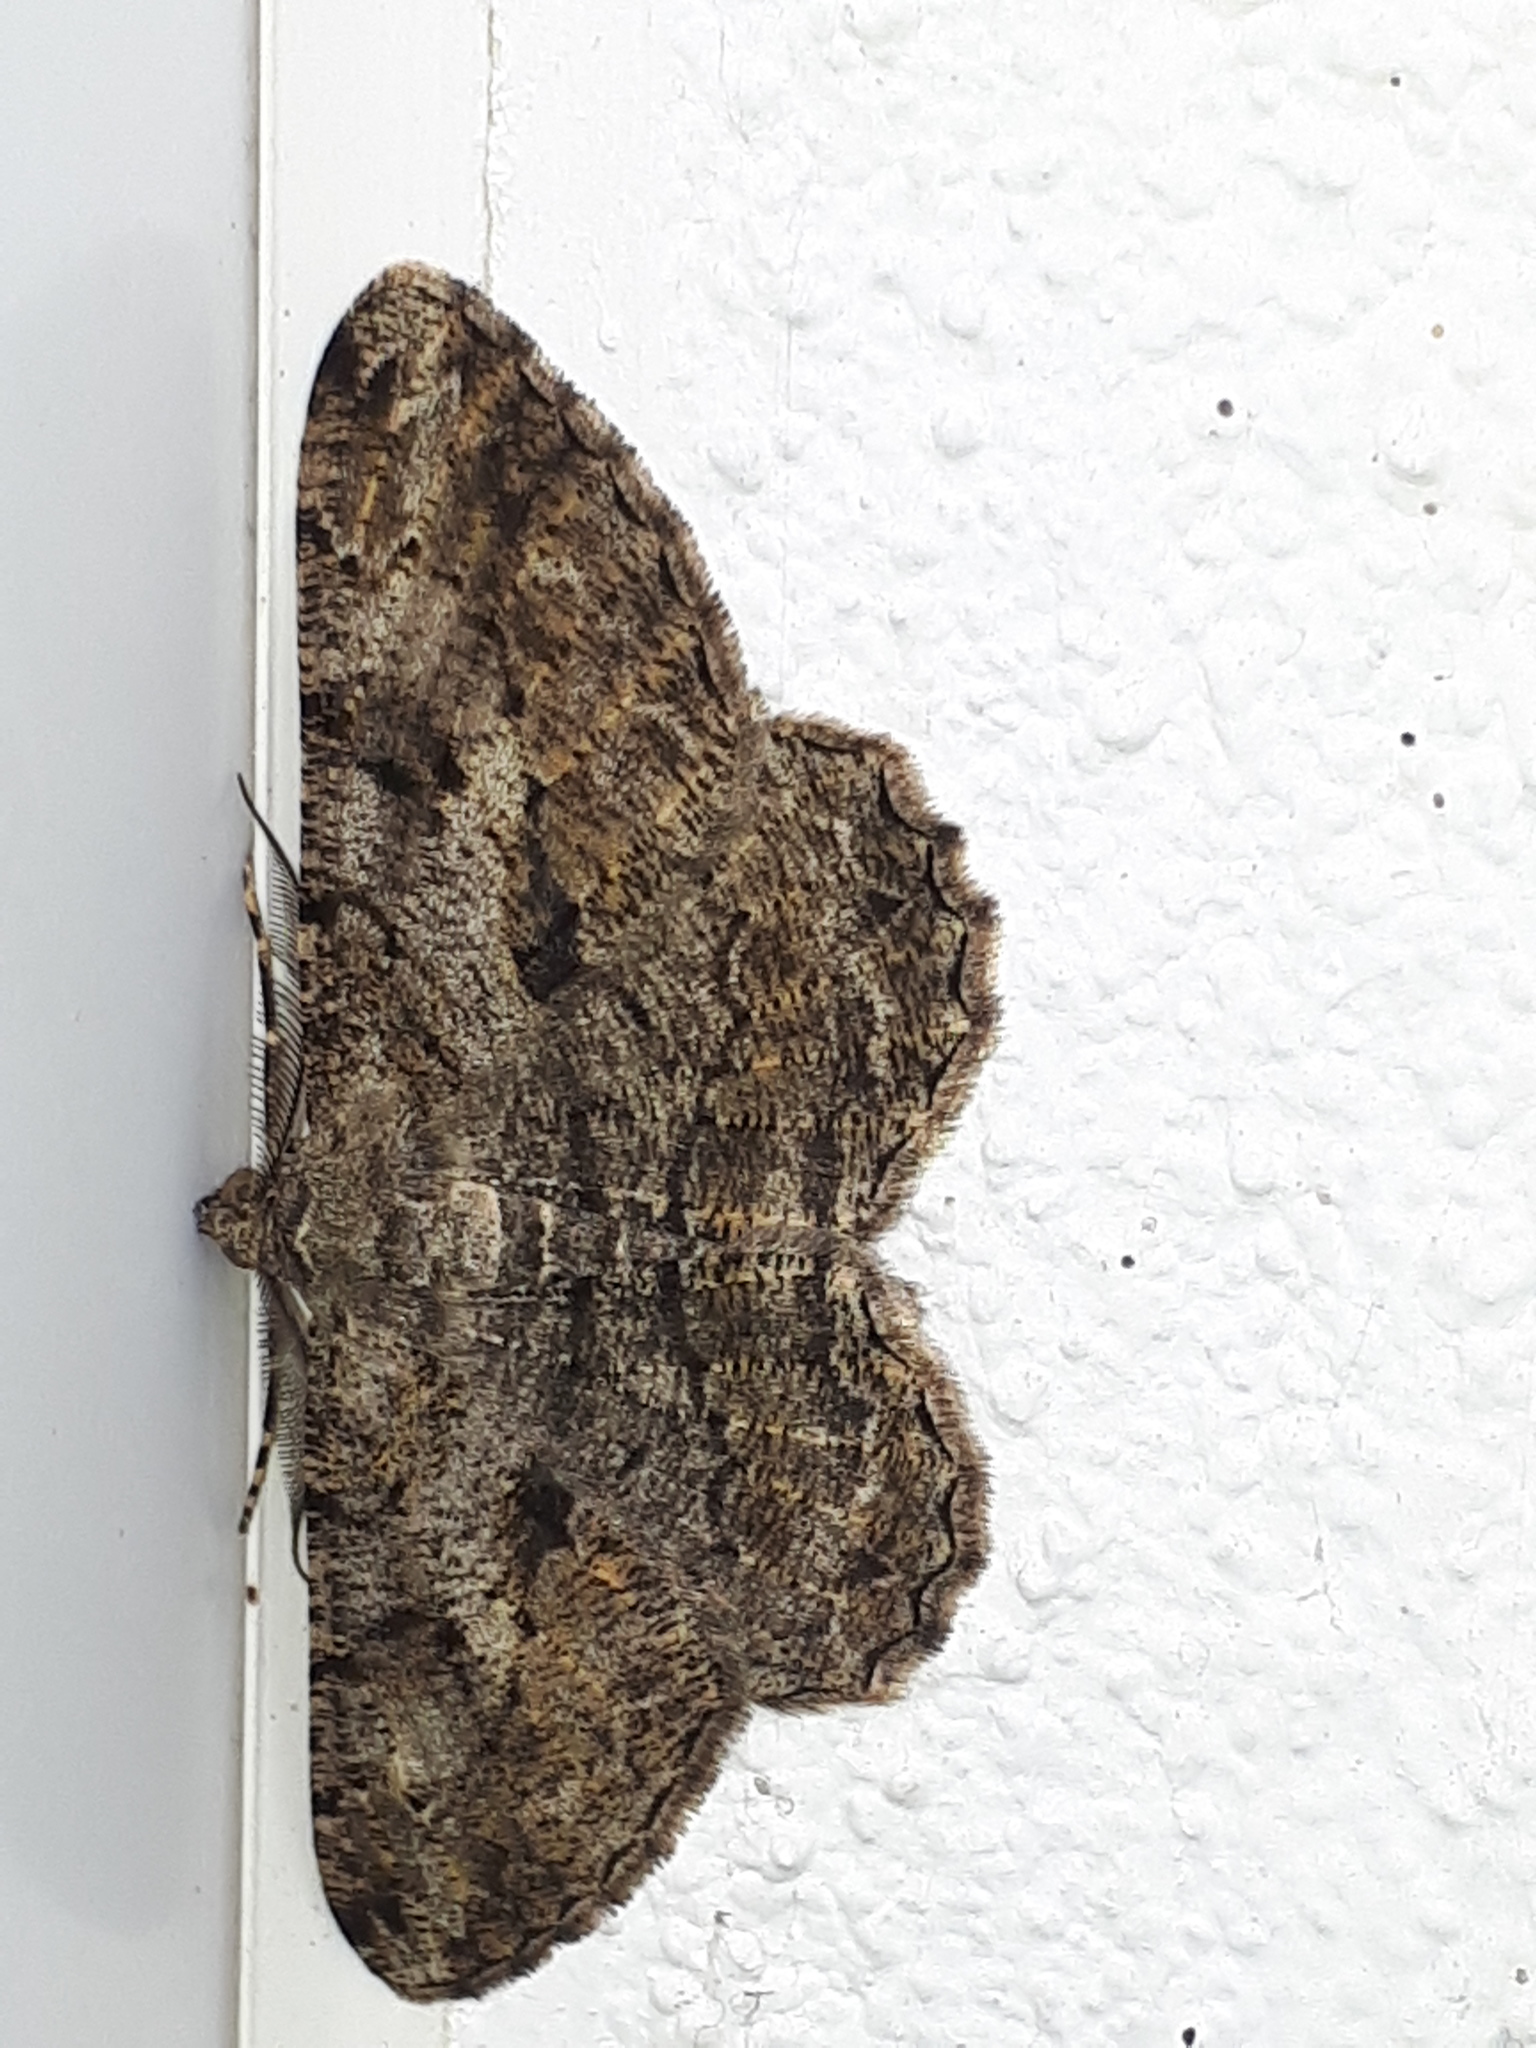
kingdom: Animalia
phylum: Arthropoda
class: Insecta
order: Lepidoptera
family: Geometridae
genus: Peribatodes
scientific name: Peribatodes rhomboidaria
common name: Willow beauty
